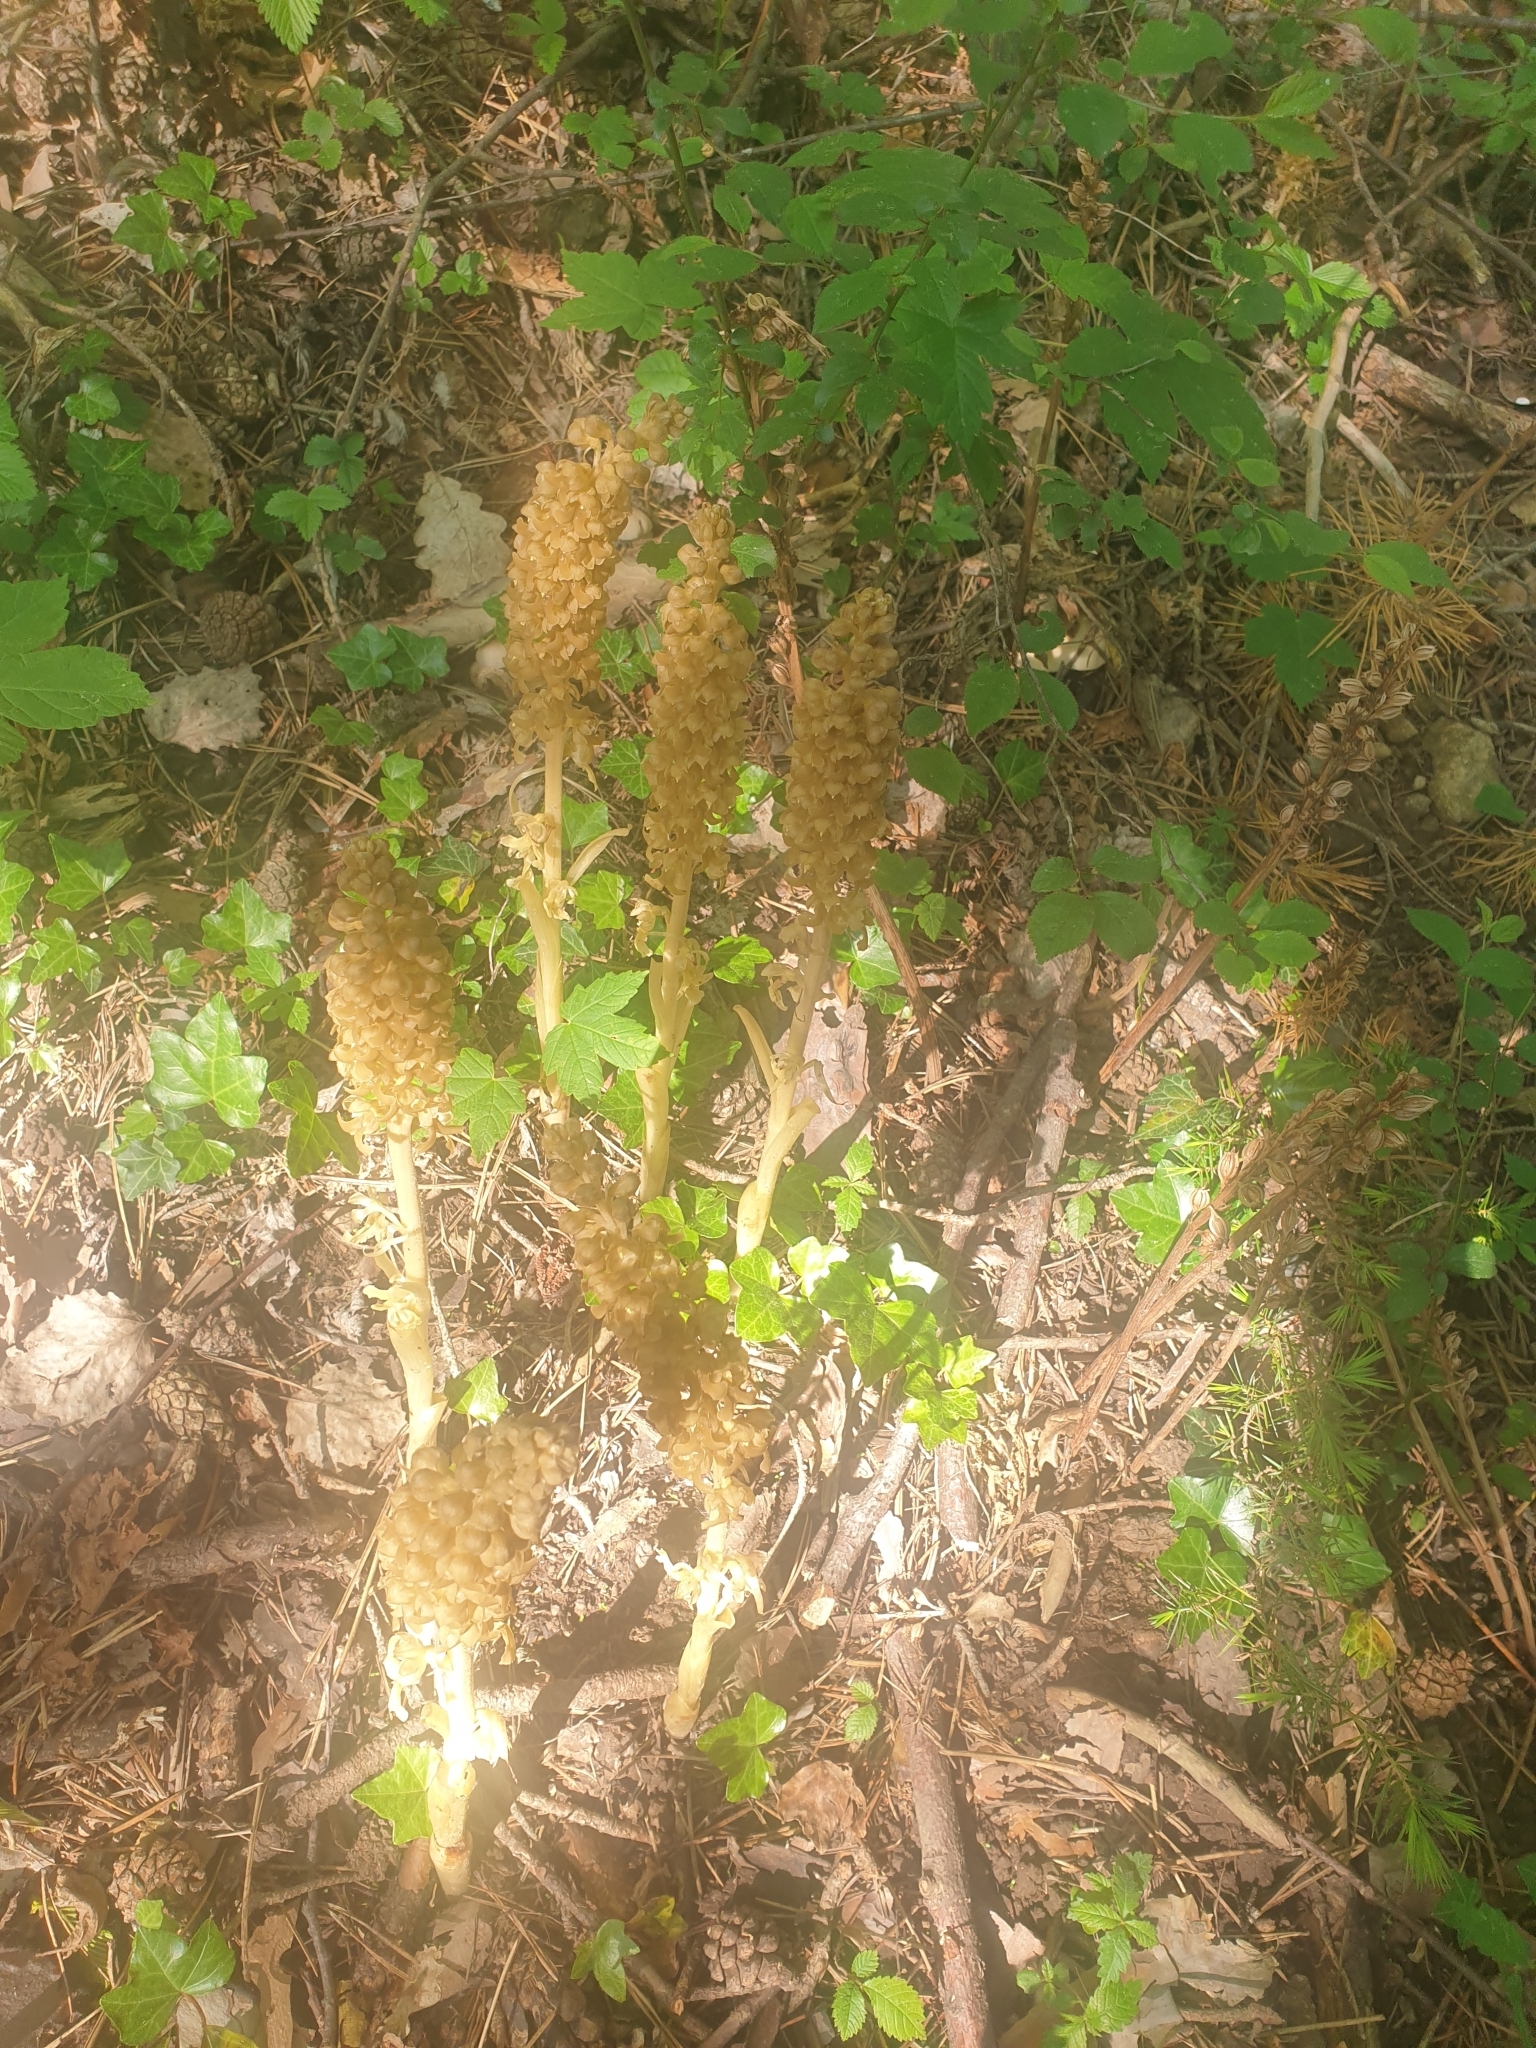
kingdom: Plantae
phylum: Tracheophyta
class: Liliopsida
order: Asparagales
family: Orchidaceae
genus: Neottia
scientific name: Neottia nidus-avis
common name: Bird's-nest orchid
